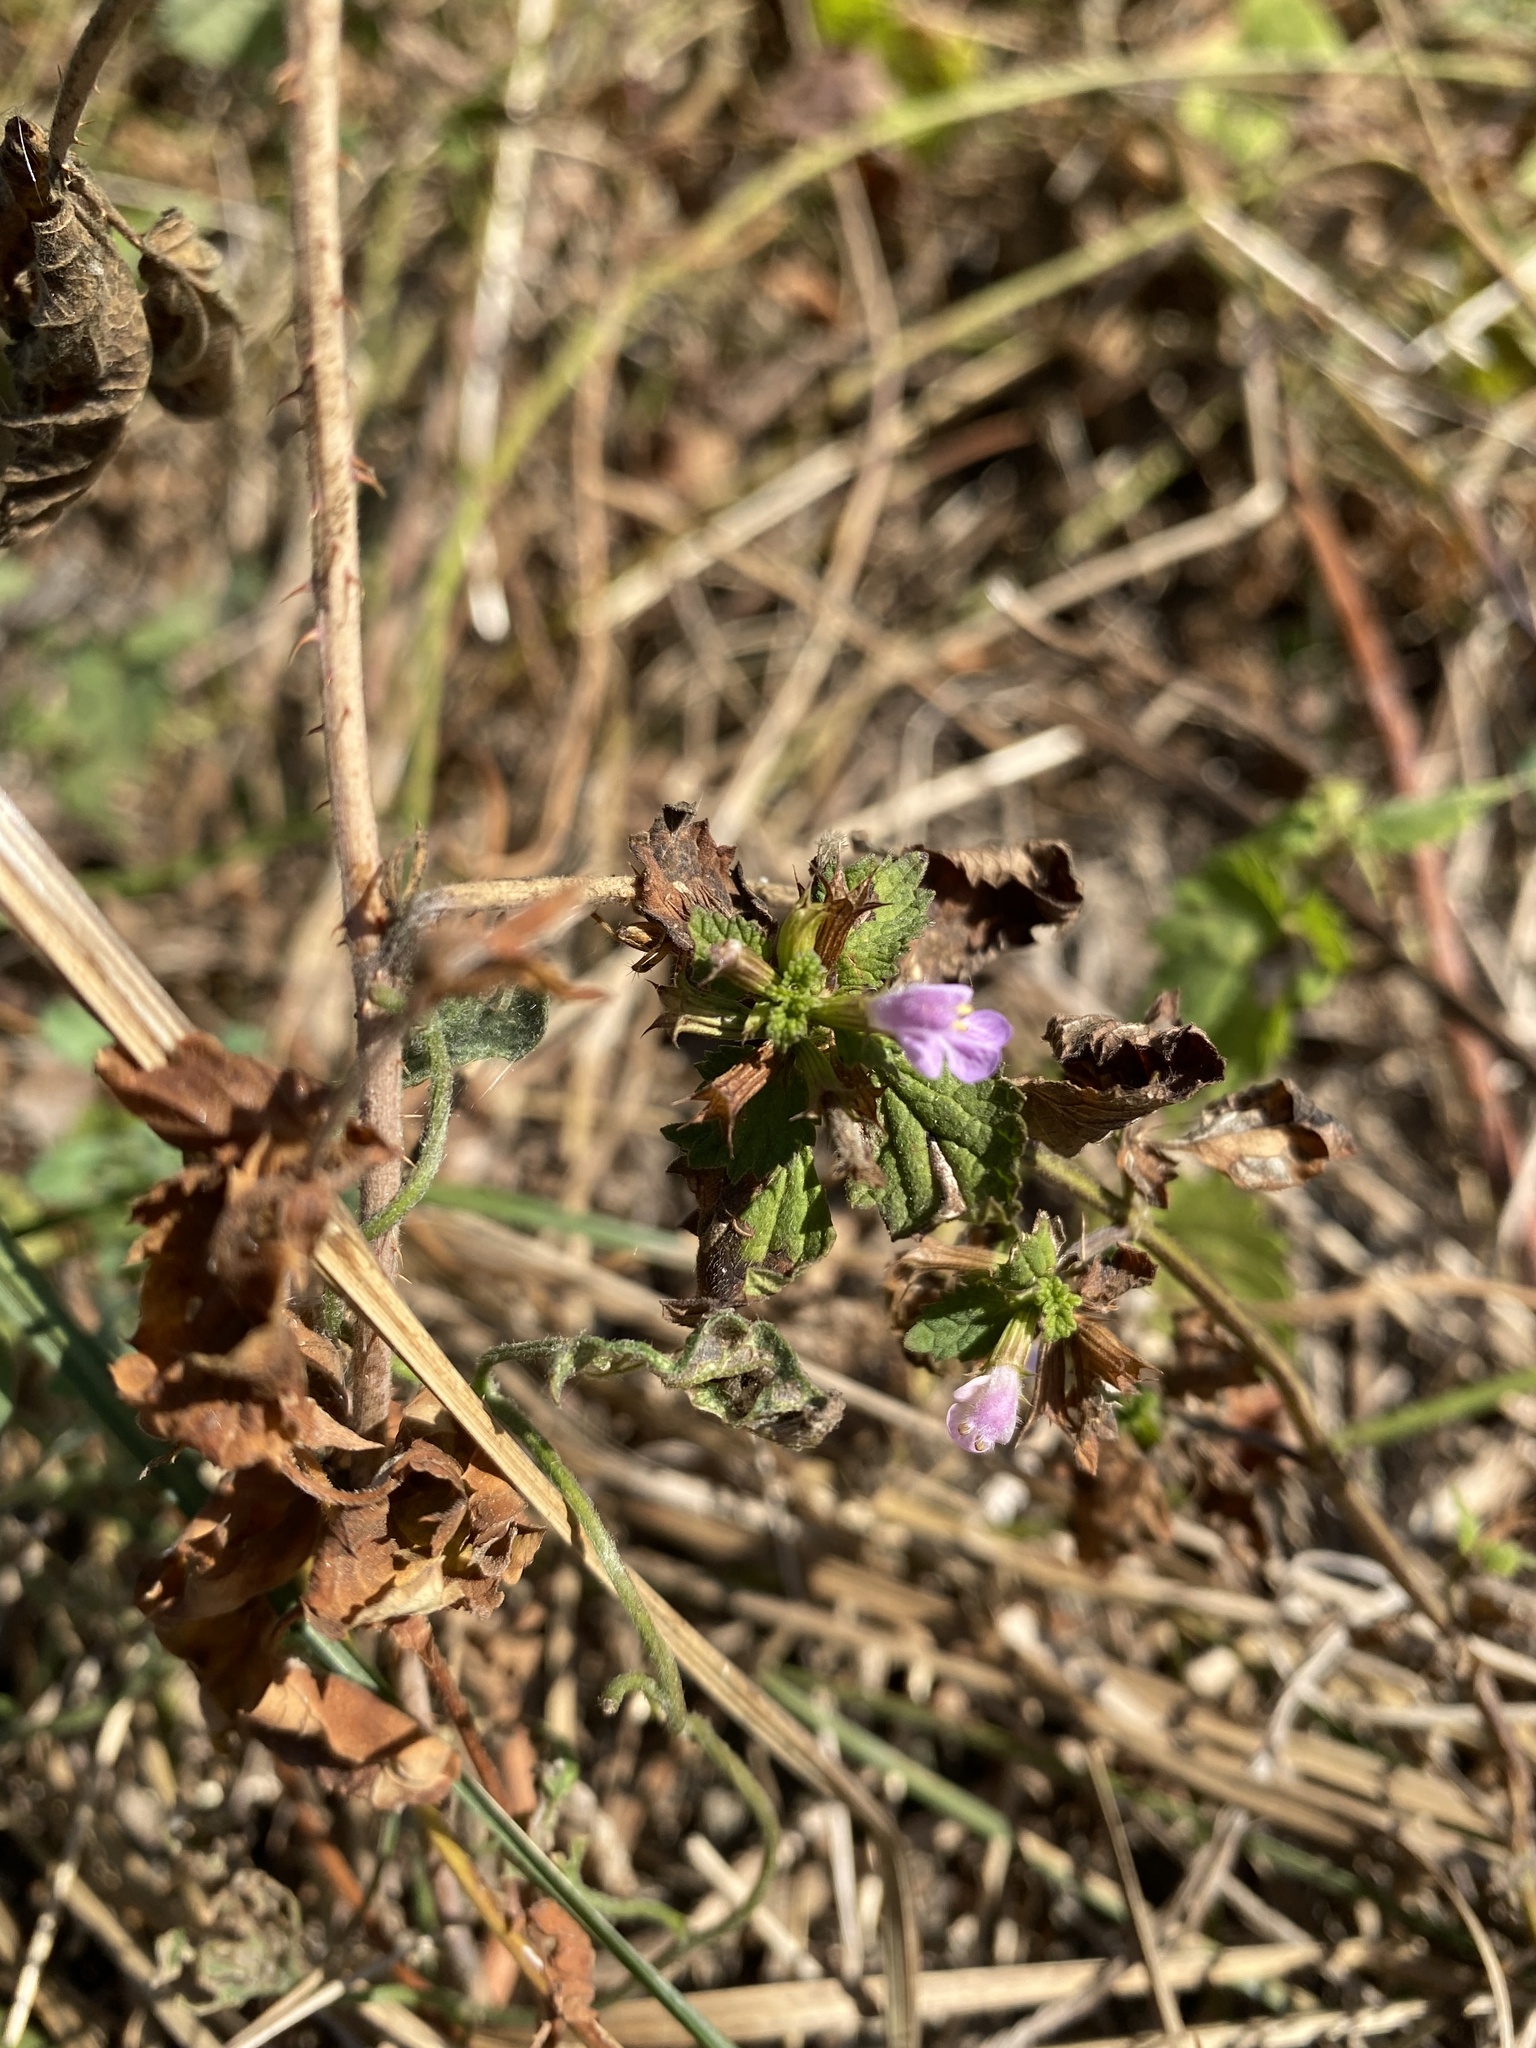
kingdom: Plantae
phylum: Tracheophyta
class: Magnoliopsida
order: Lamiales
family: Lamiaceae
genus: Ballota
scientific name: Ballota nigra
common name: Black horehound
